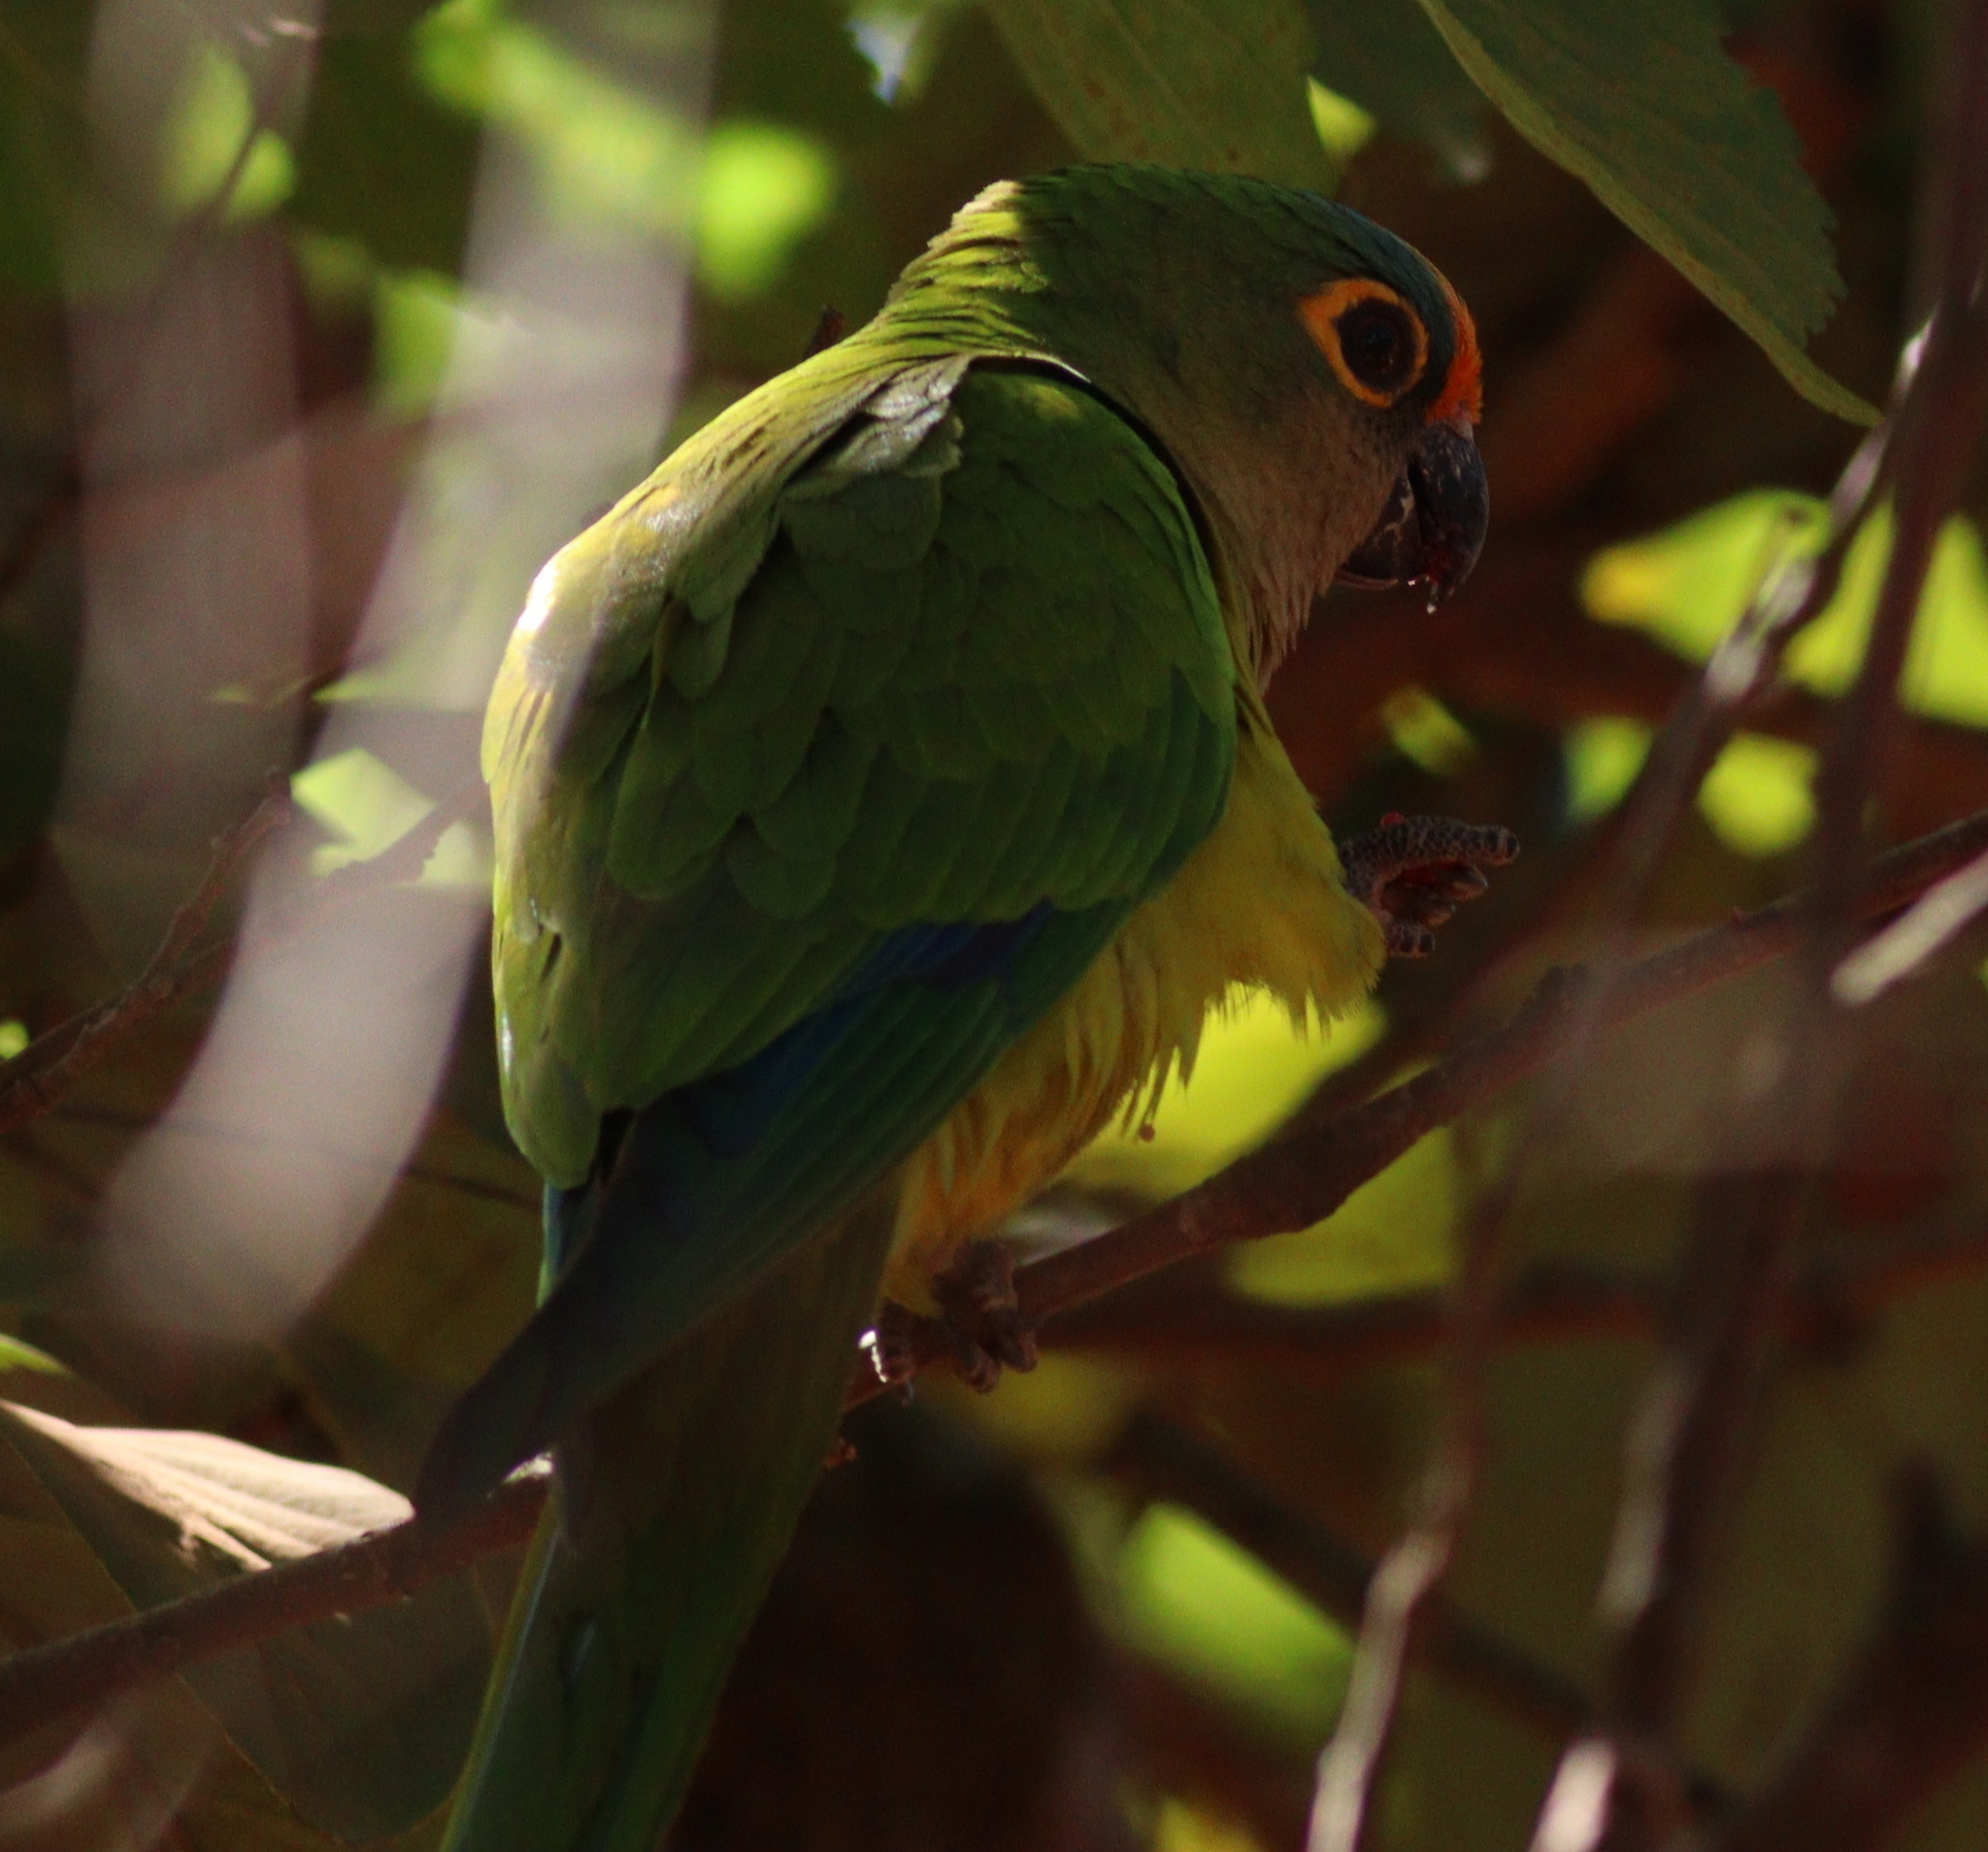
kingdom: Animalia
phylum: Chordata
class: Aves
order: Psittaciformes
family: Psittacidae
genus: Aratinga
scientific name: Aratinga aurea
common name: Peach-fronted parakeet
